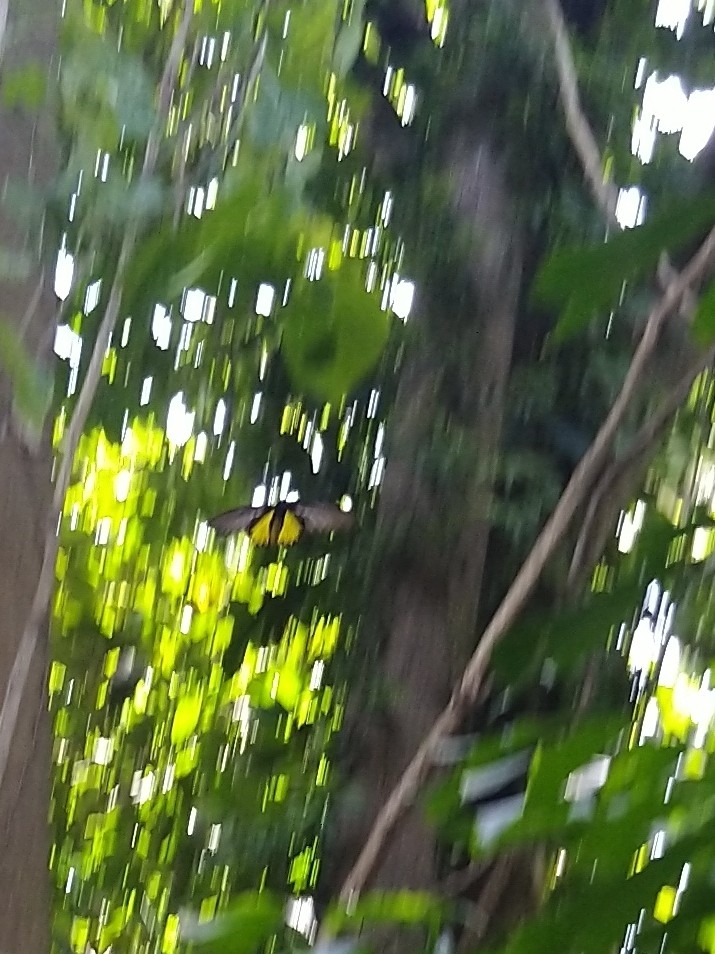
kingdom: Animalia
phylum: Arthropoda
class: Insecta
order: Lepidoptera
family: Papilionidae
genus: Troides
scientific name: Troides minos
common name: Malabar birdwing
